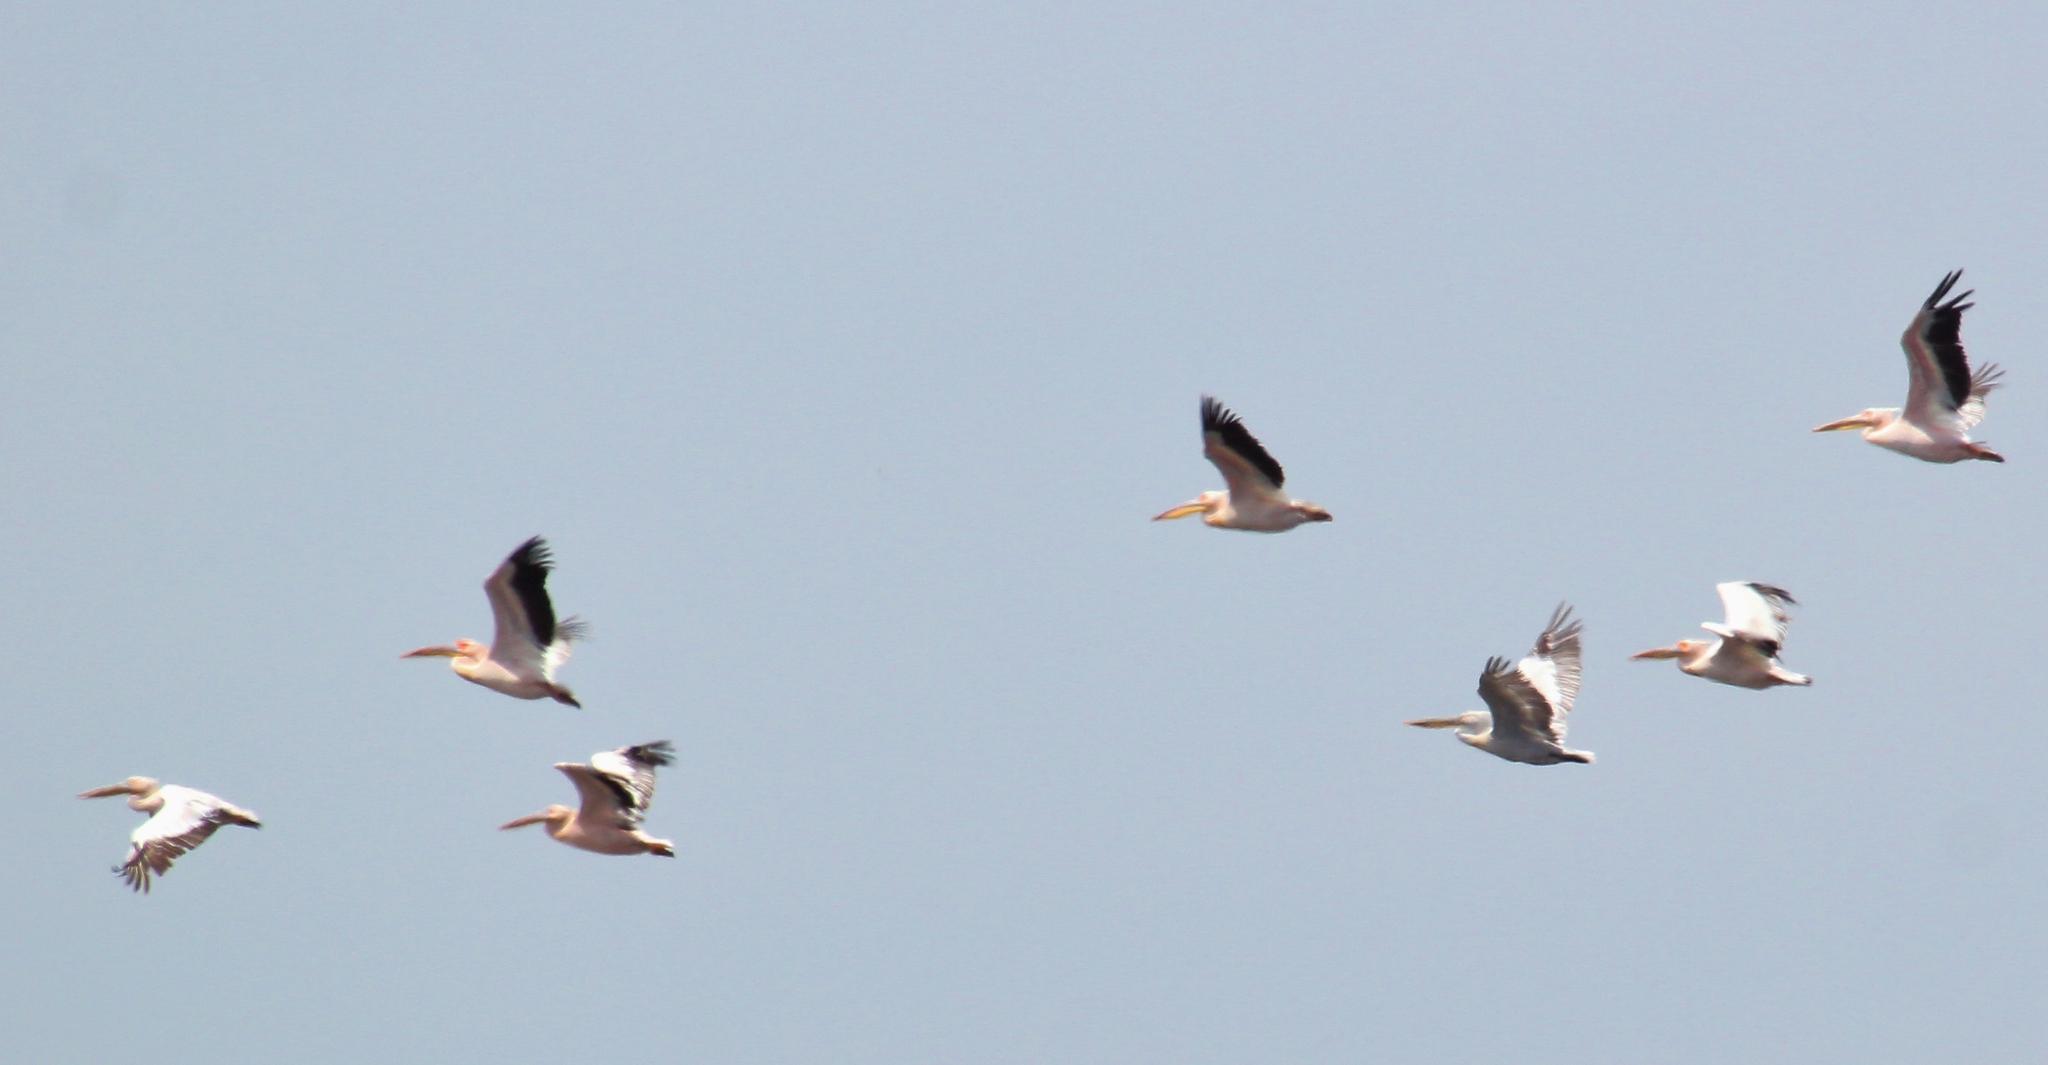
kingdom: Animalia
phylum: Chordata
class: Aves
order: Pelecaniformes
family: Pelecanidae
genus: Pelecanus
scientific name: Pelecanus onocrotalus
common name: Great white pelican
